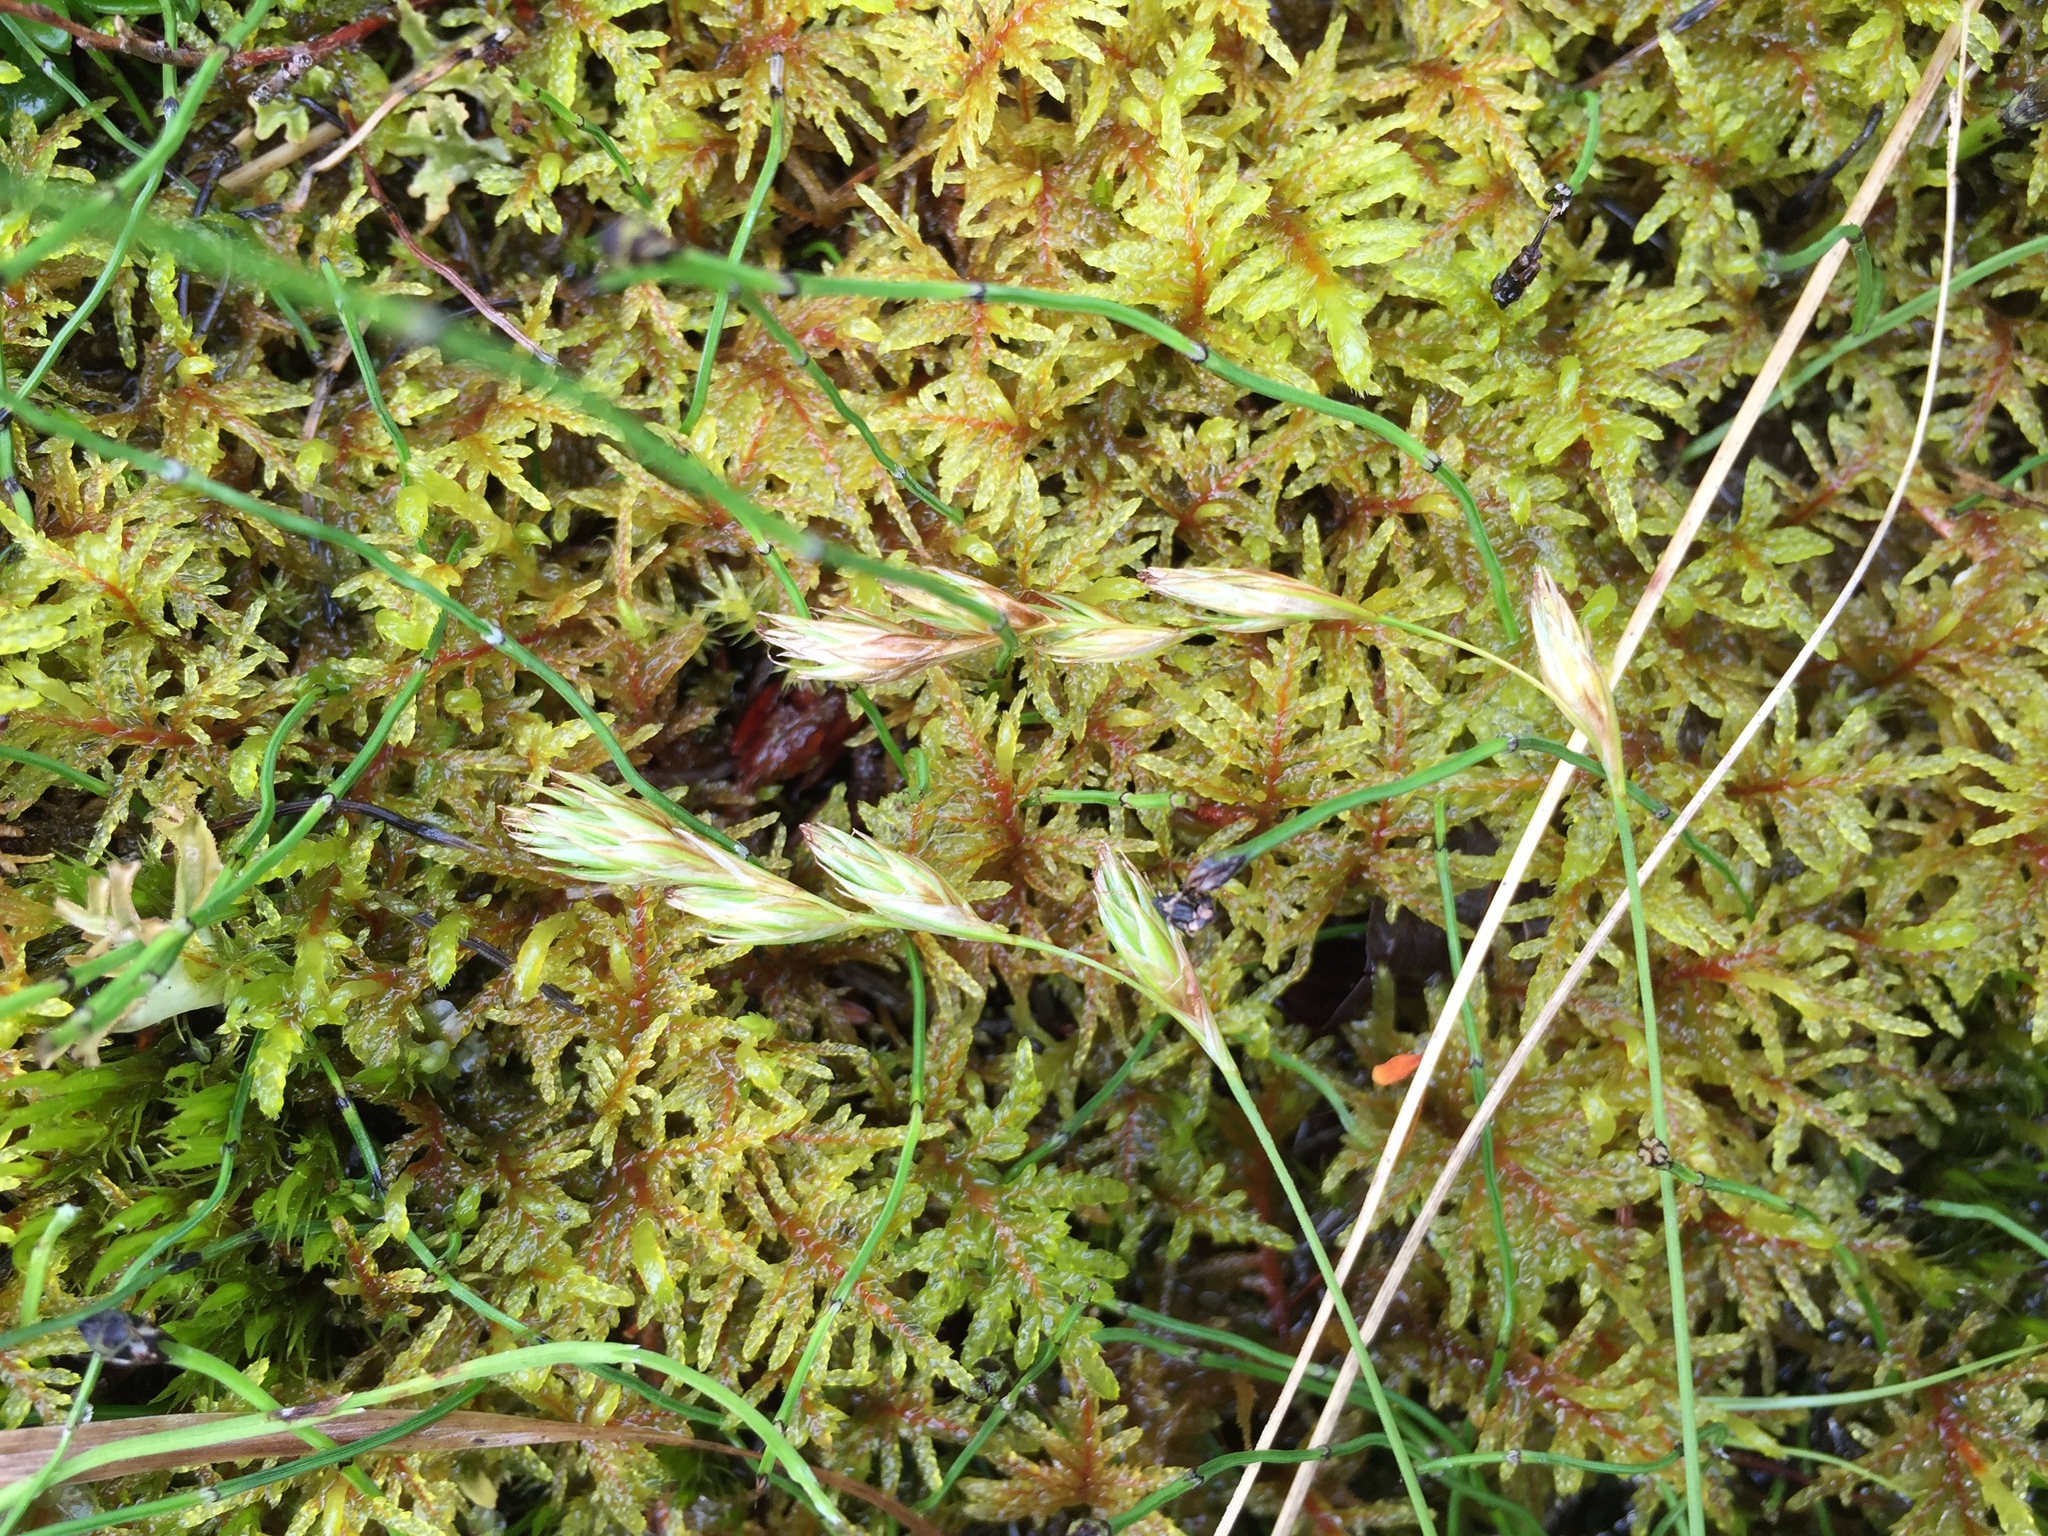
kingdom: Plantae
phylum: Tracheophyta
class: Liliopsida
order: Poales
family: Cyperaceae
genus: Carex
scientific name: Carex praticola
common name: Large-fruited oval sedge
